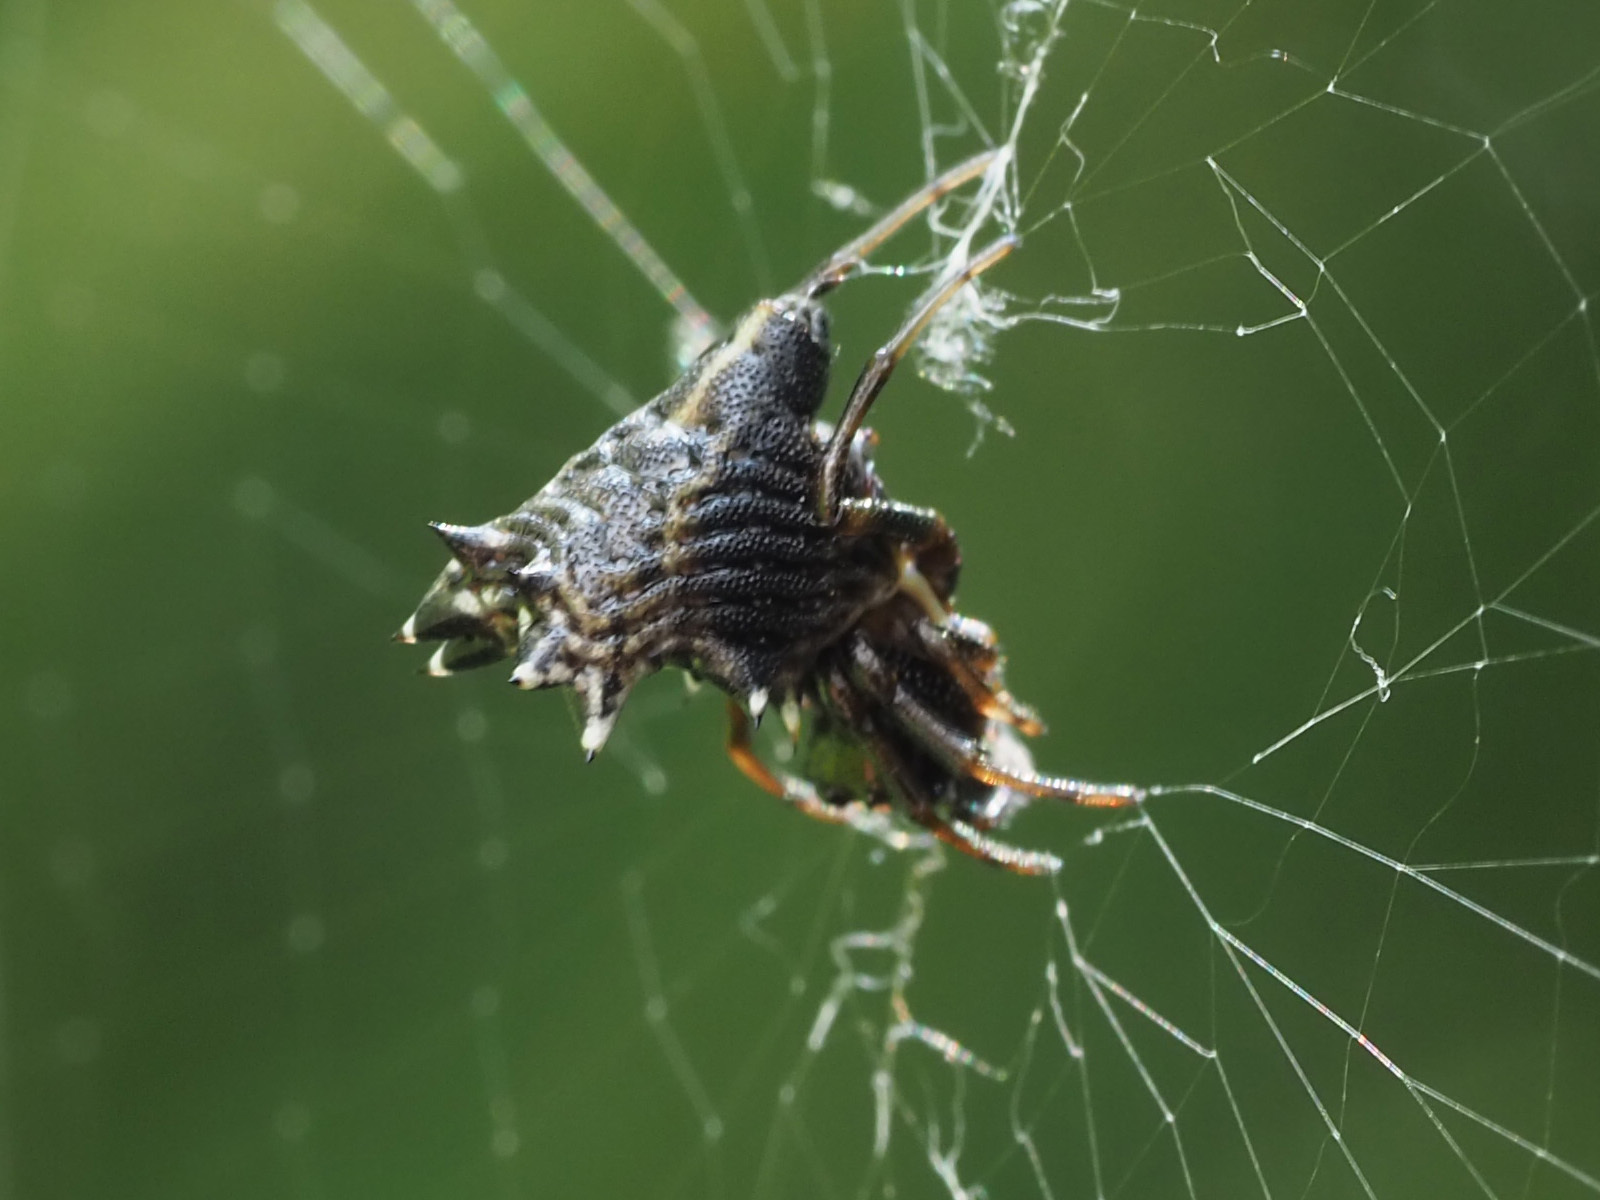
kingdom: Animalia
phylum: Arthropoda
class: Arachnida
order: Araneae
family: Araneidae
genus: Micrathena
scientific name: Micrathena gracilis
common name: Orb weavers
